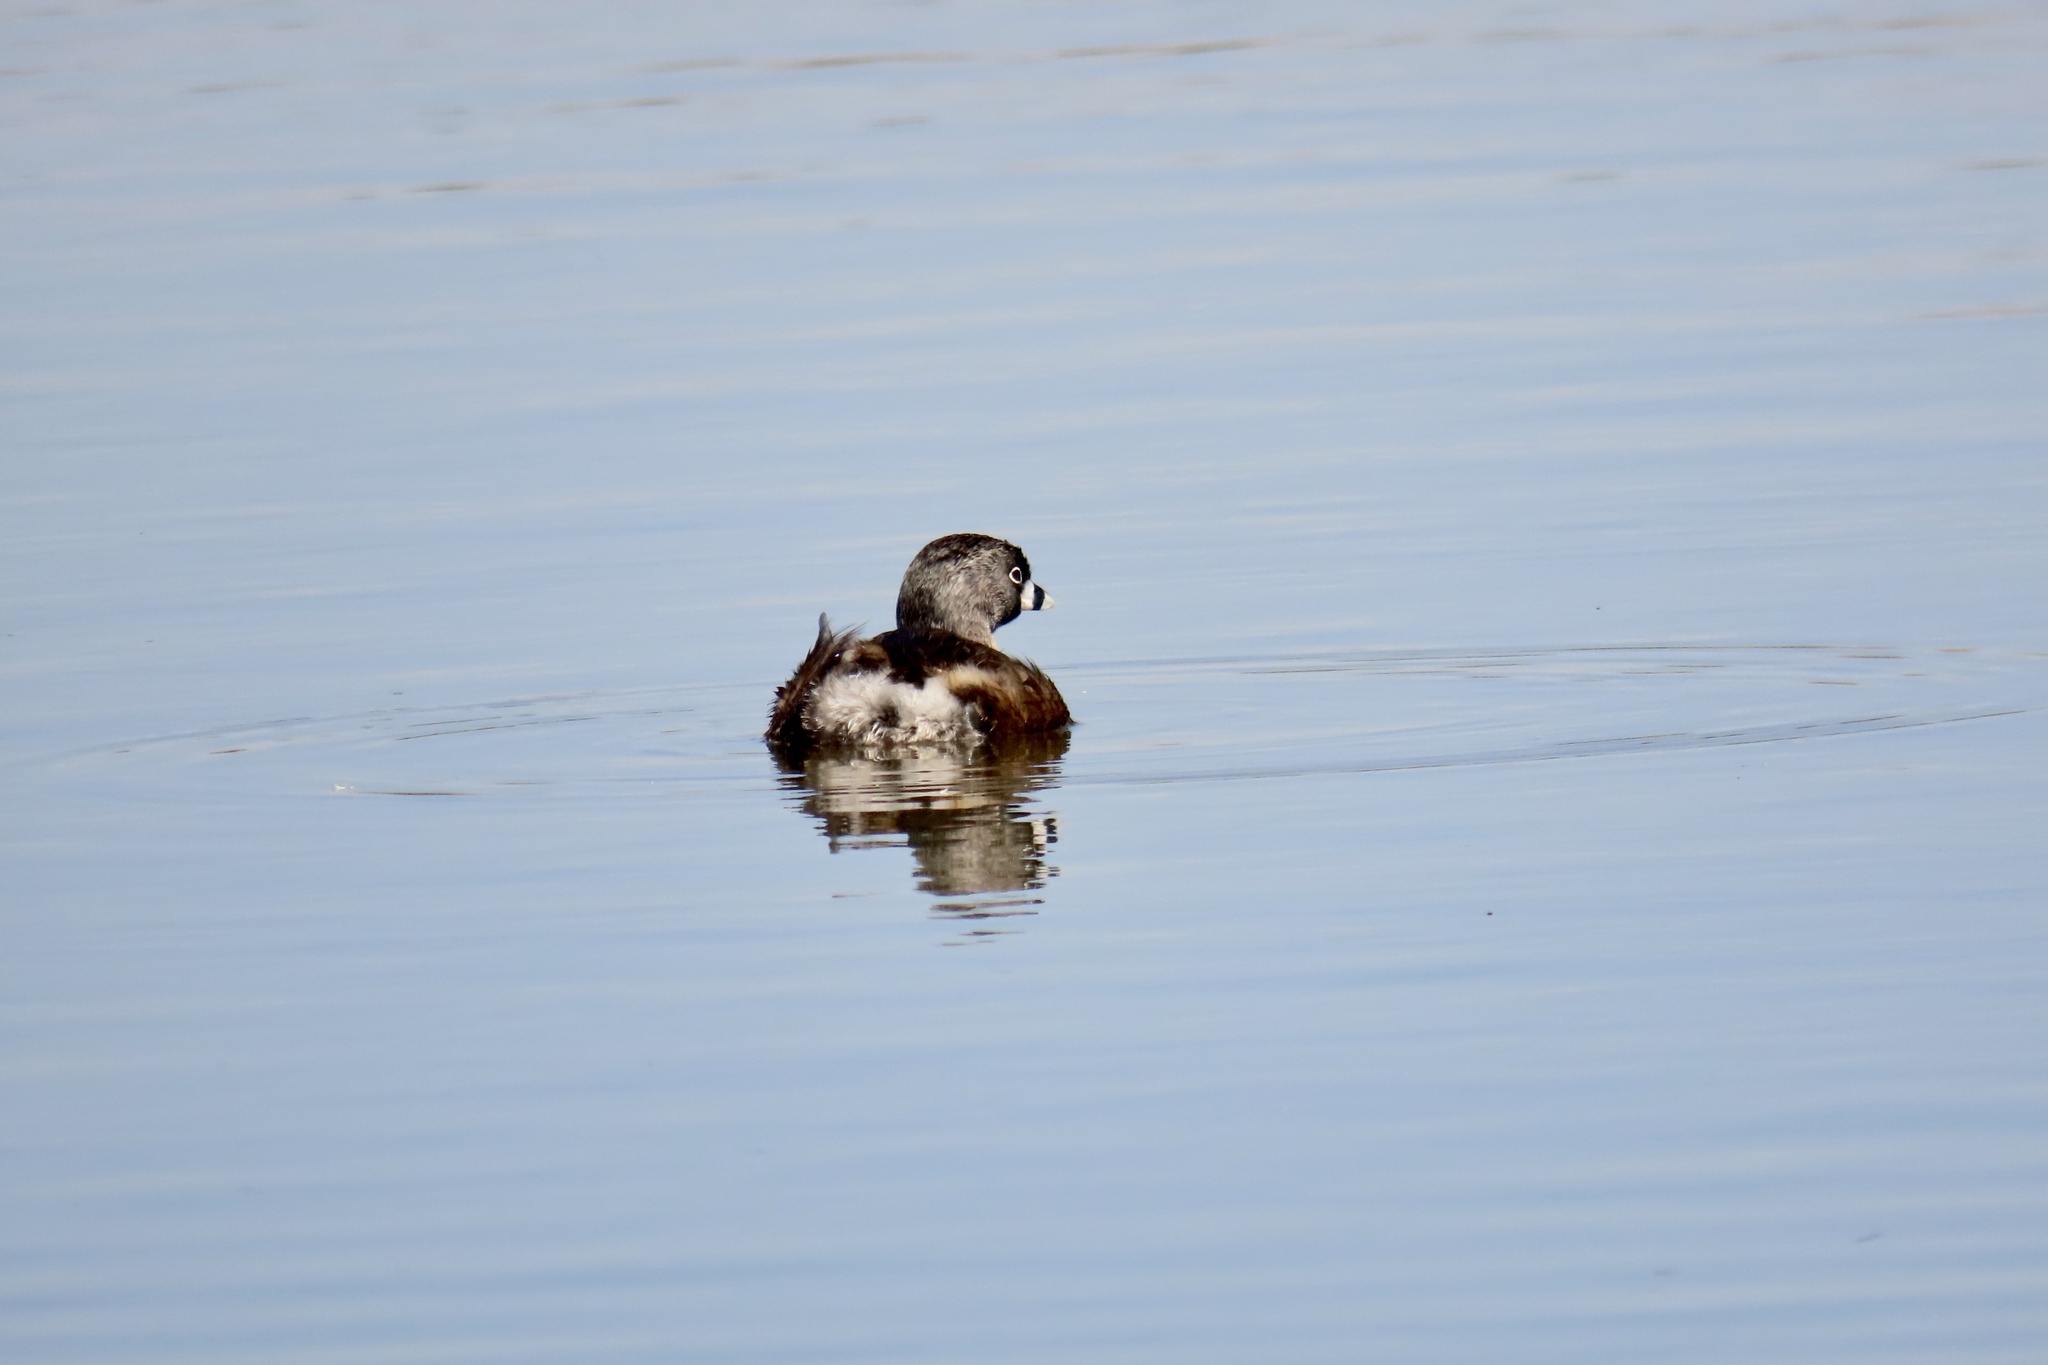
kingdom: Animalia
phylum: Chordata
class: Aves
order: Podicipediformes
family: Podicipedidae
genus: Podilymbus
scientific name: Podilymbus podiceps
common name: Pied-billed grebe
